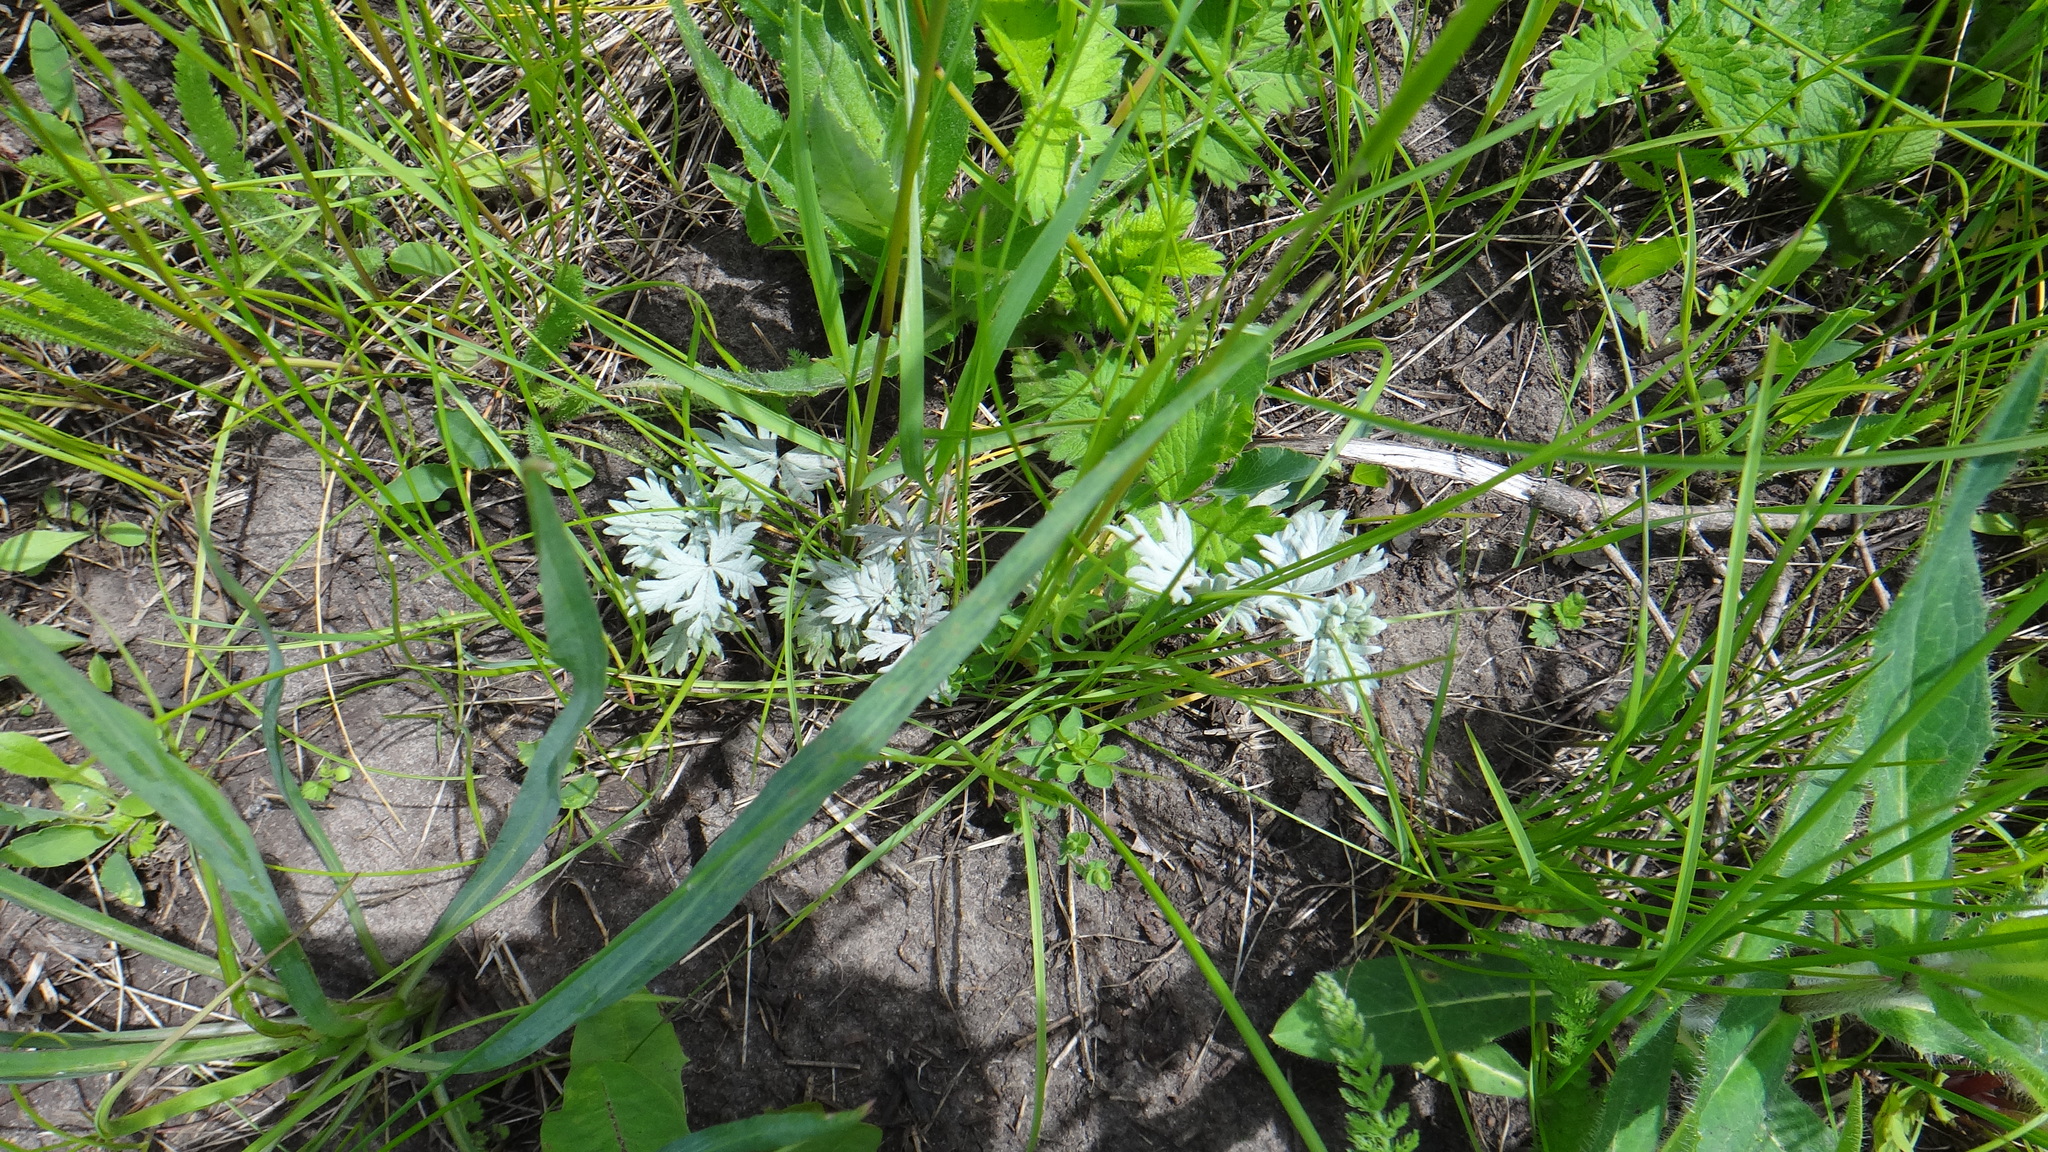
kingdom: Plantae
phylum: Tracheophyta
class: Magnoliopsida
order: Rosales
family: Rosaceae
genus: Potentilla
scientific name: Potentilla argentea
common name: Hoary cinquefoil
